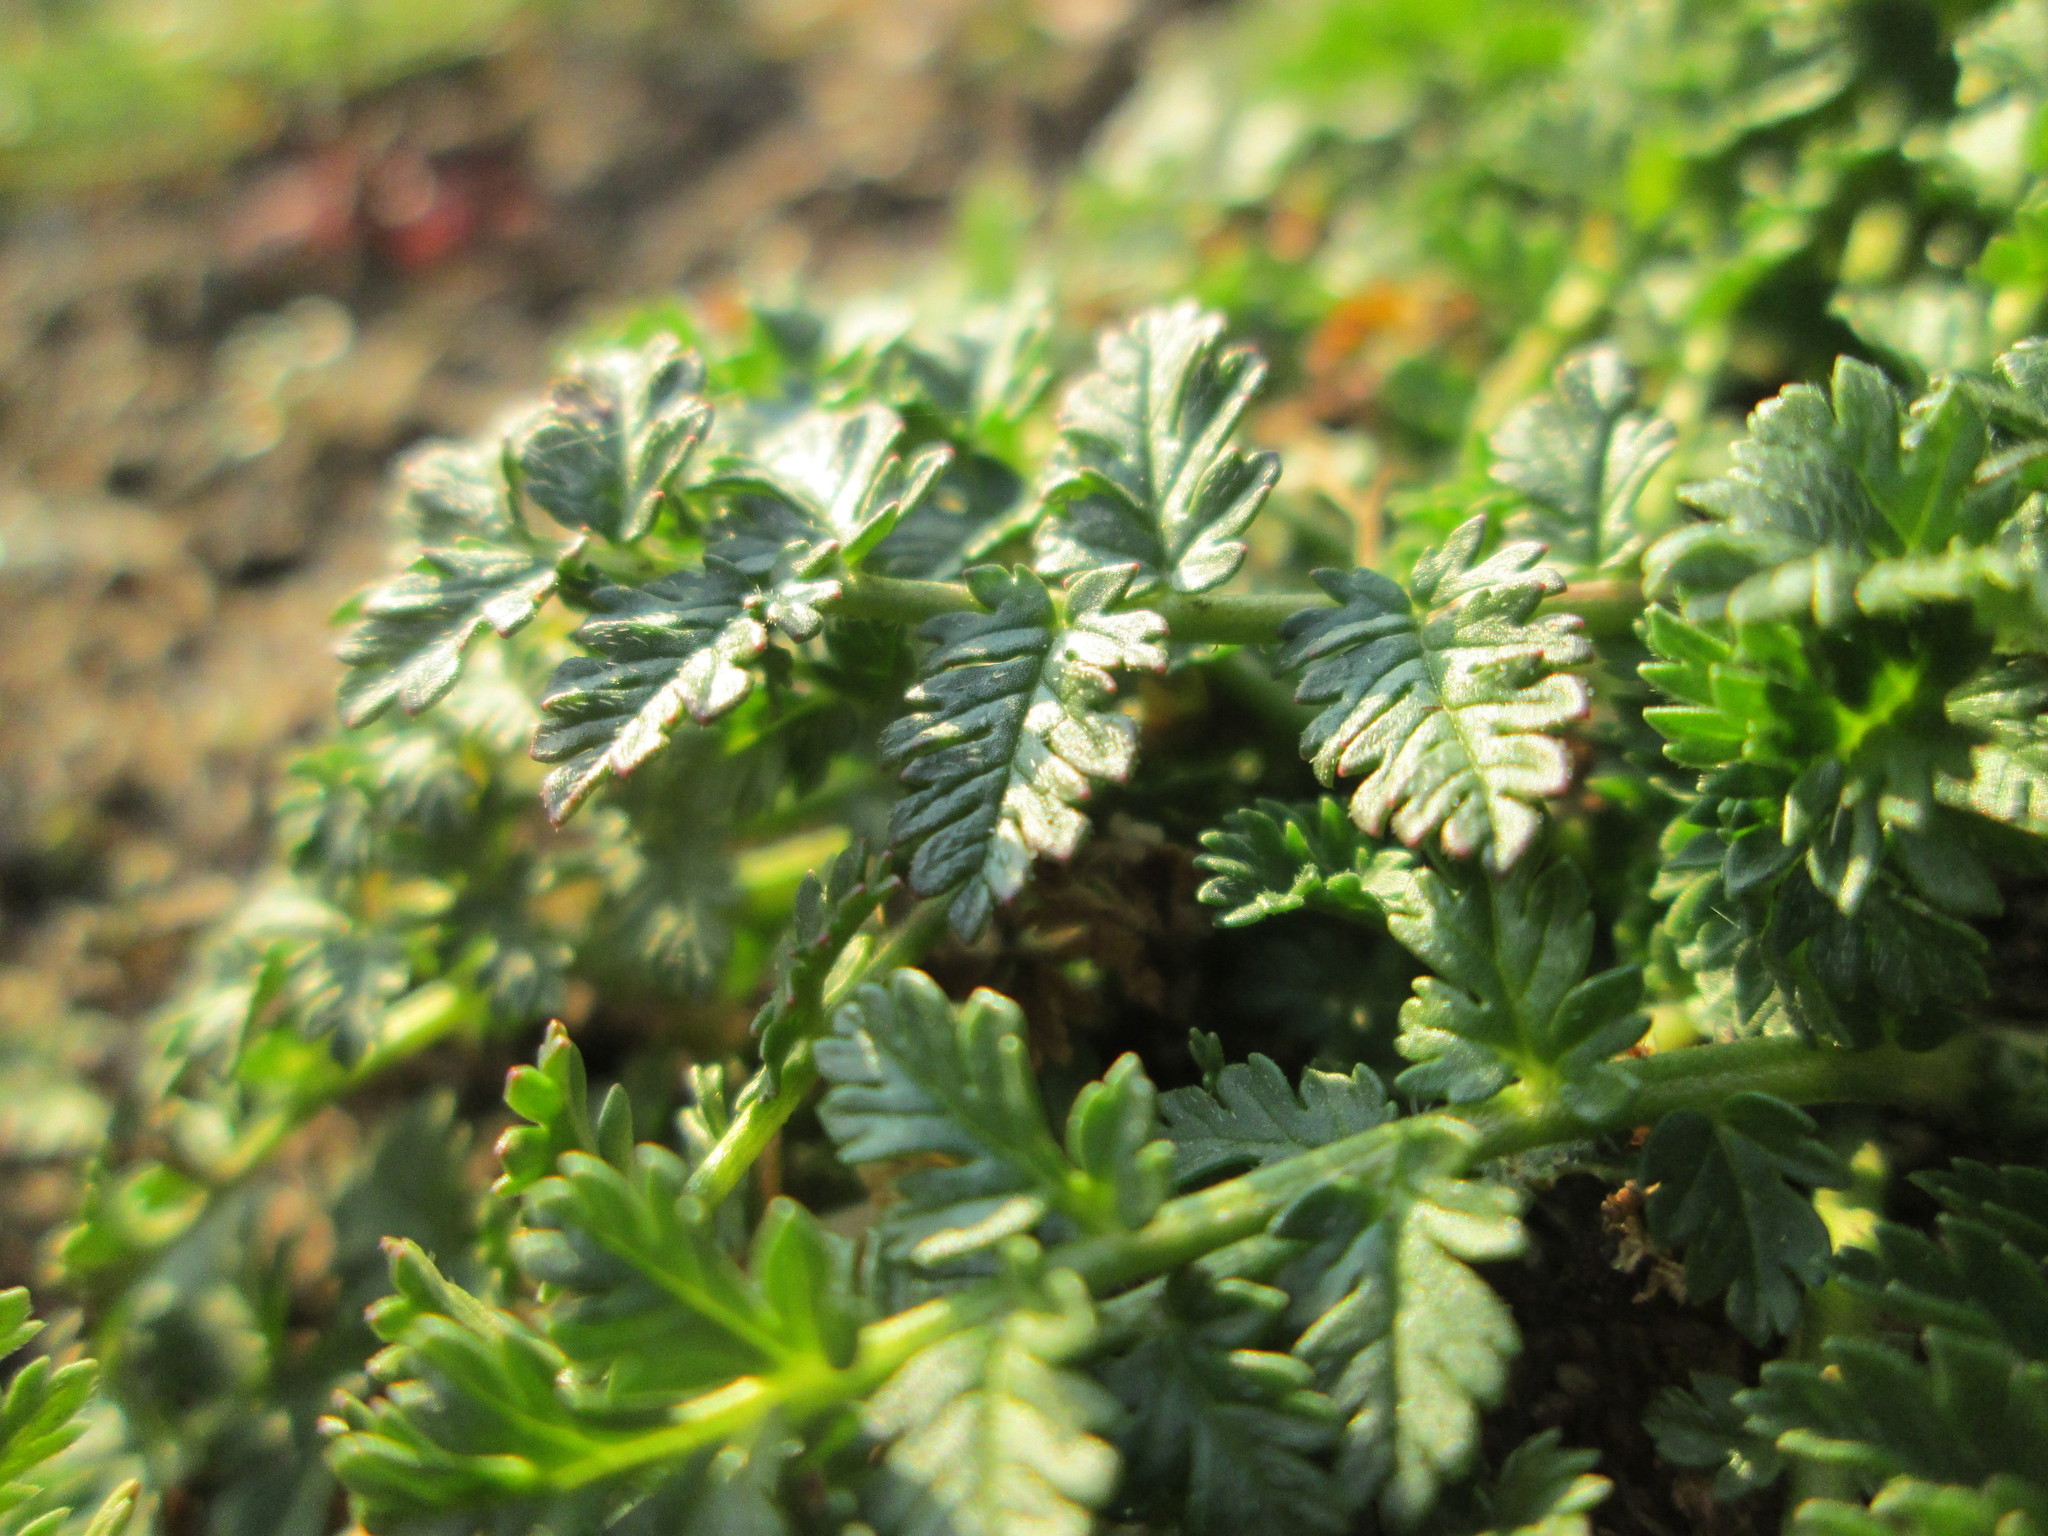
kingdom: Plantae
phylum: Tracheophyta
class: Magnoliopsida
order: Geraniales
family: Geraniaceae
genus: Erodium
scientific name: Erodium cicutarium
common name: Common stork's-bill
